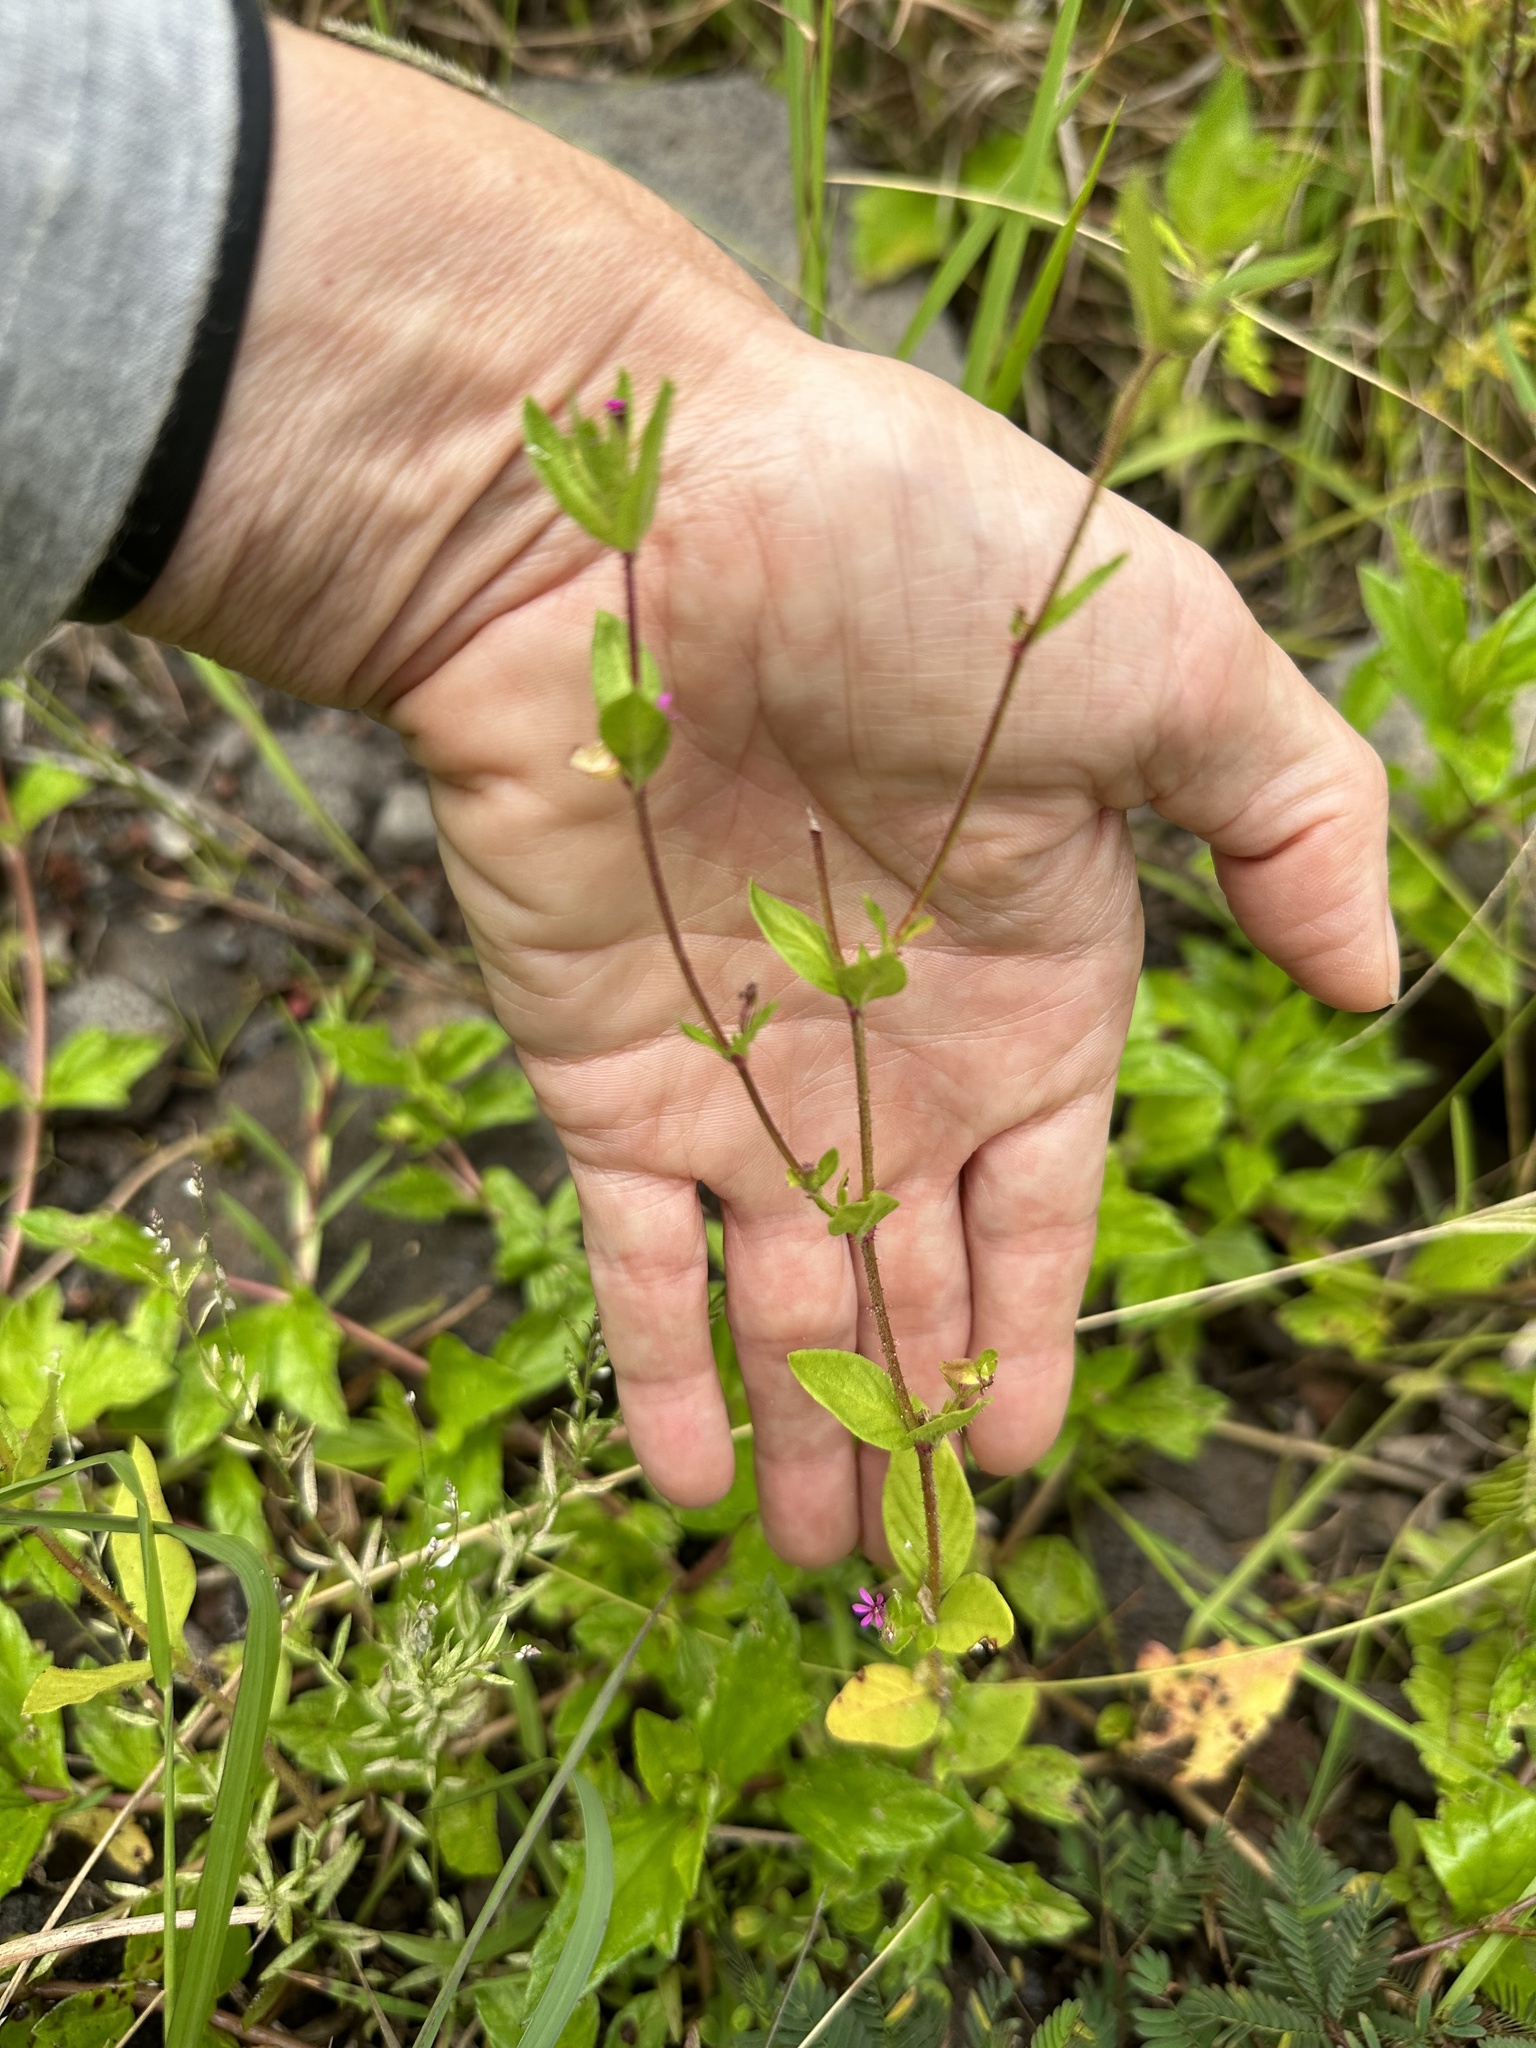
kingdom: Plantae
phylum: Tracheophyta
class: Magnoliopsida
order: Myrtales
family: Lythraceae
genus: Cuphea
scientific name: Cuphea carthagenensis
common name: Colombian waxweed
